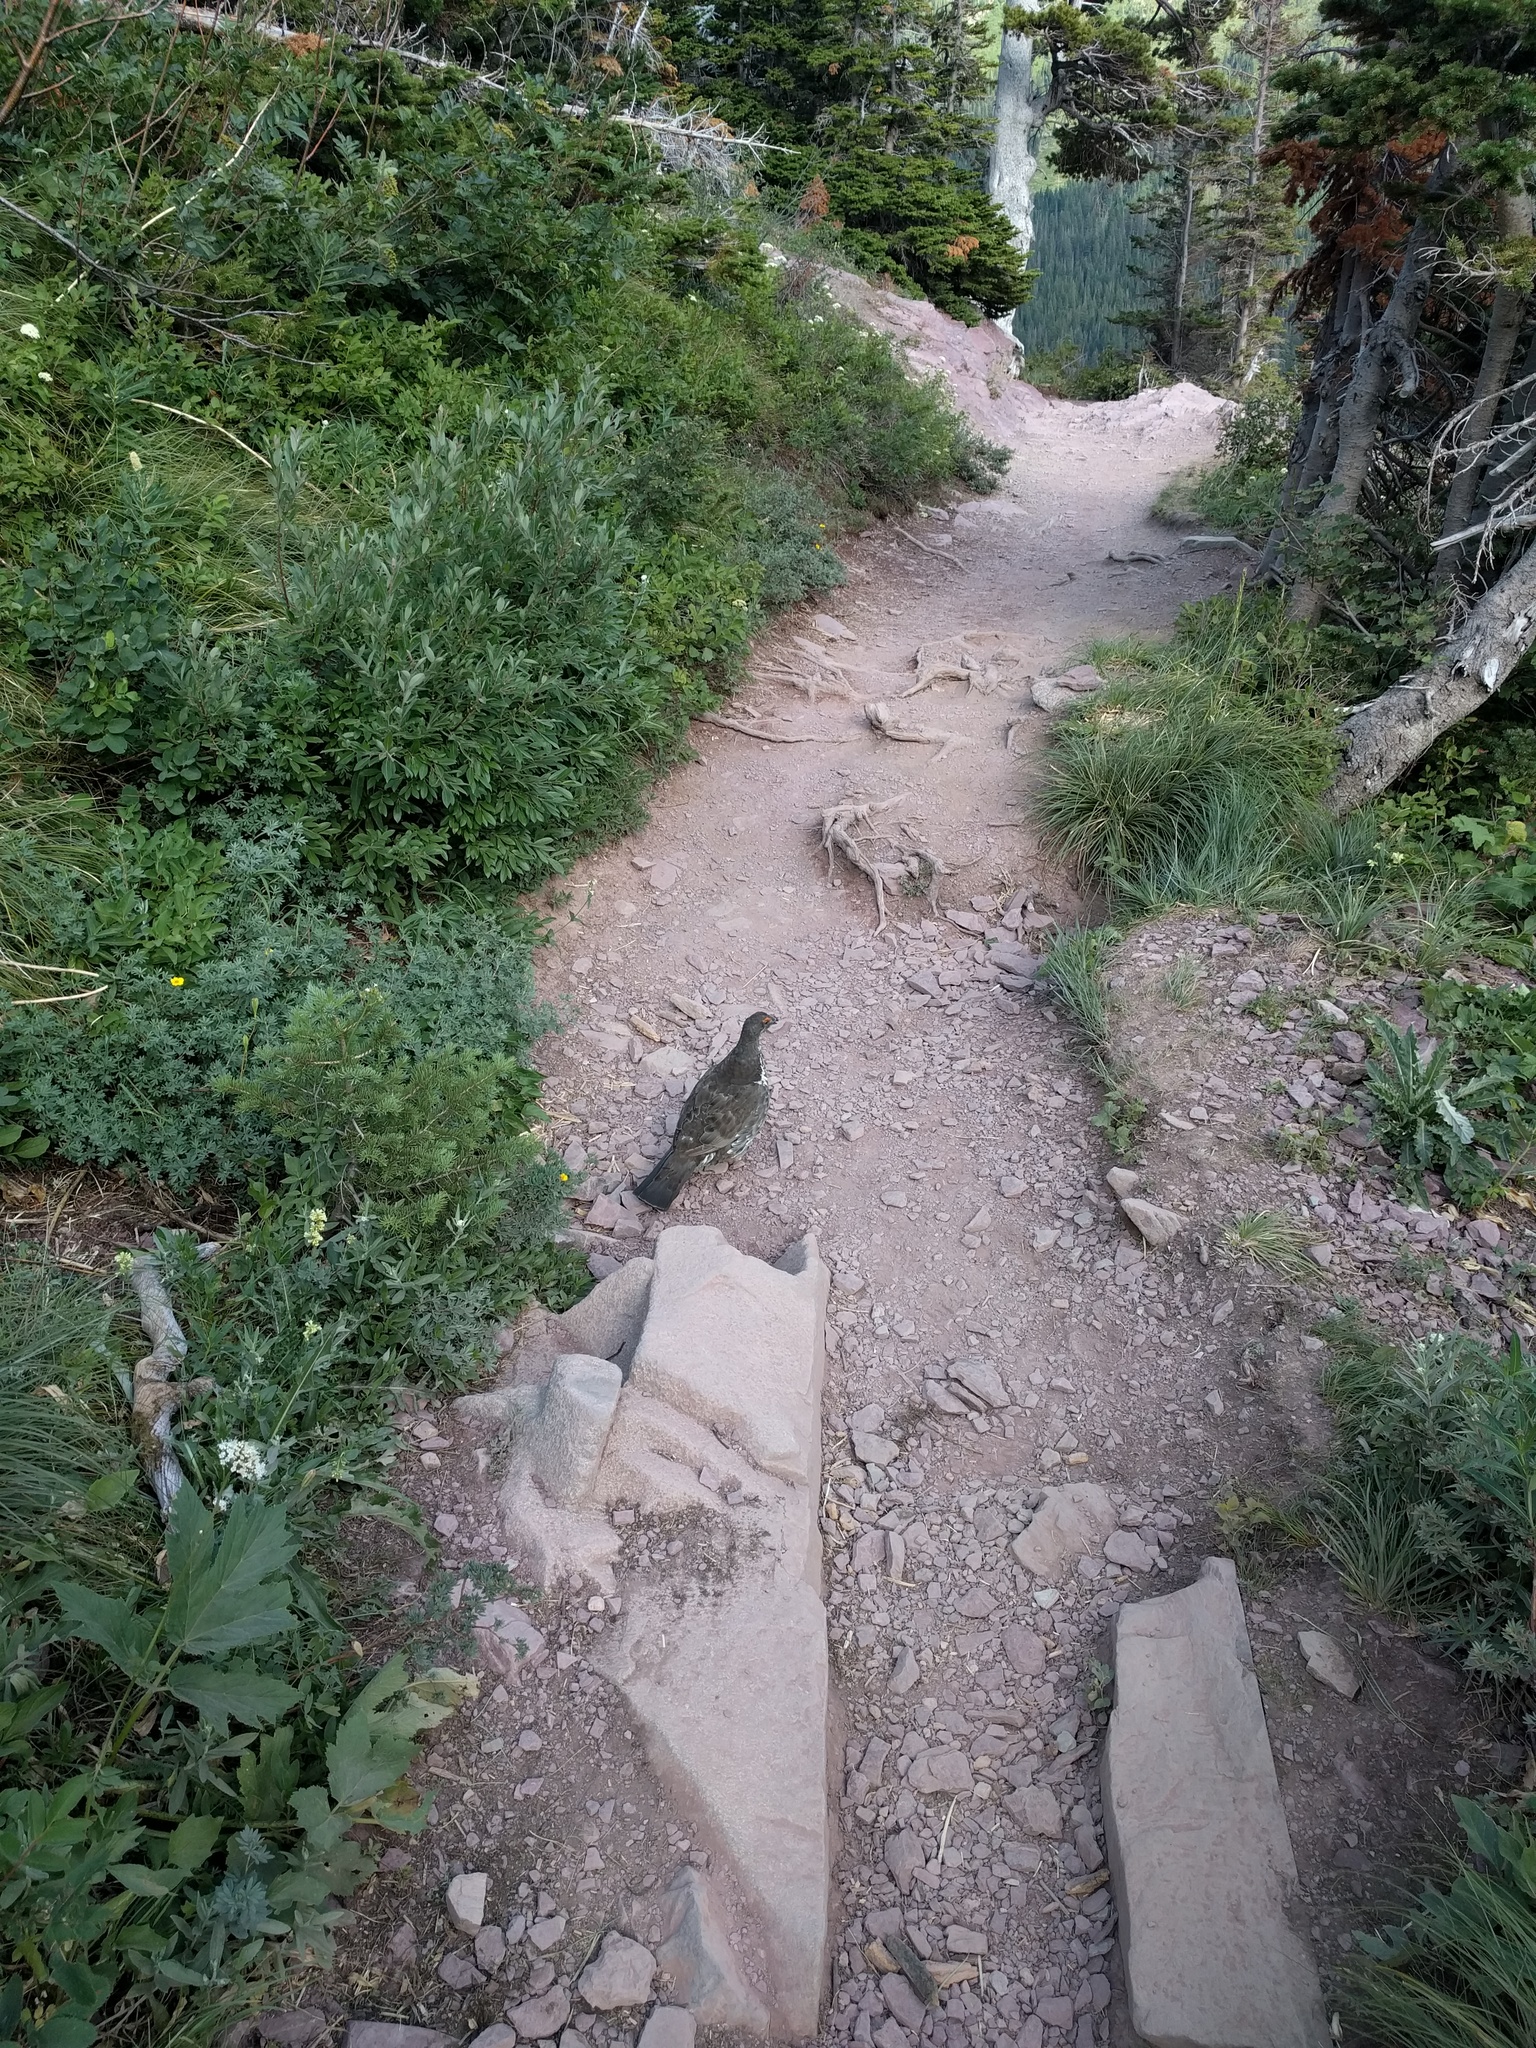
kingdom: Animalia
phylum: Chordata
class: Aves
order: Galliformes
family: Phasianidae
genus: Dendragapus
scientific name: Dendragapus obscurus
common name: Dusky grouse
